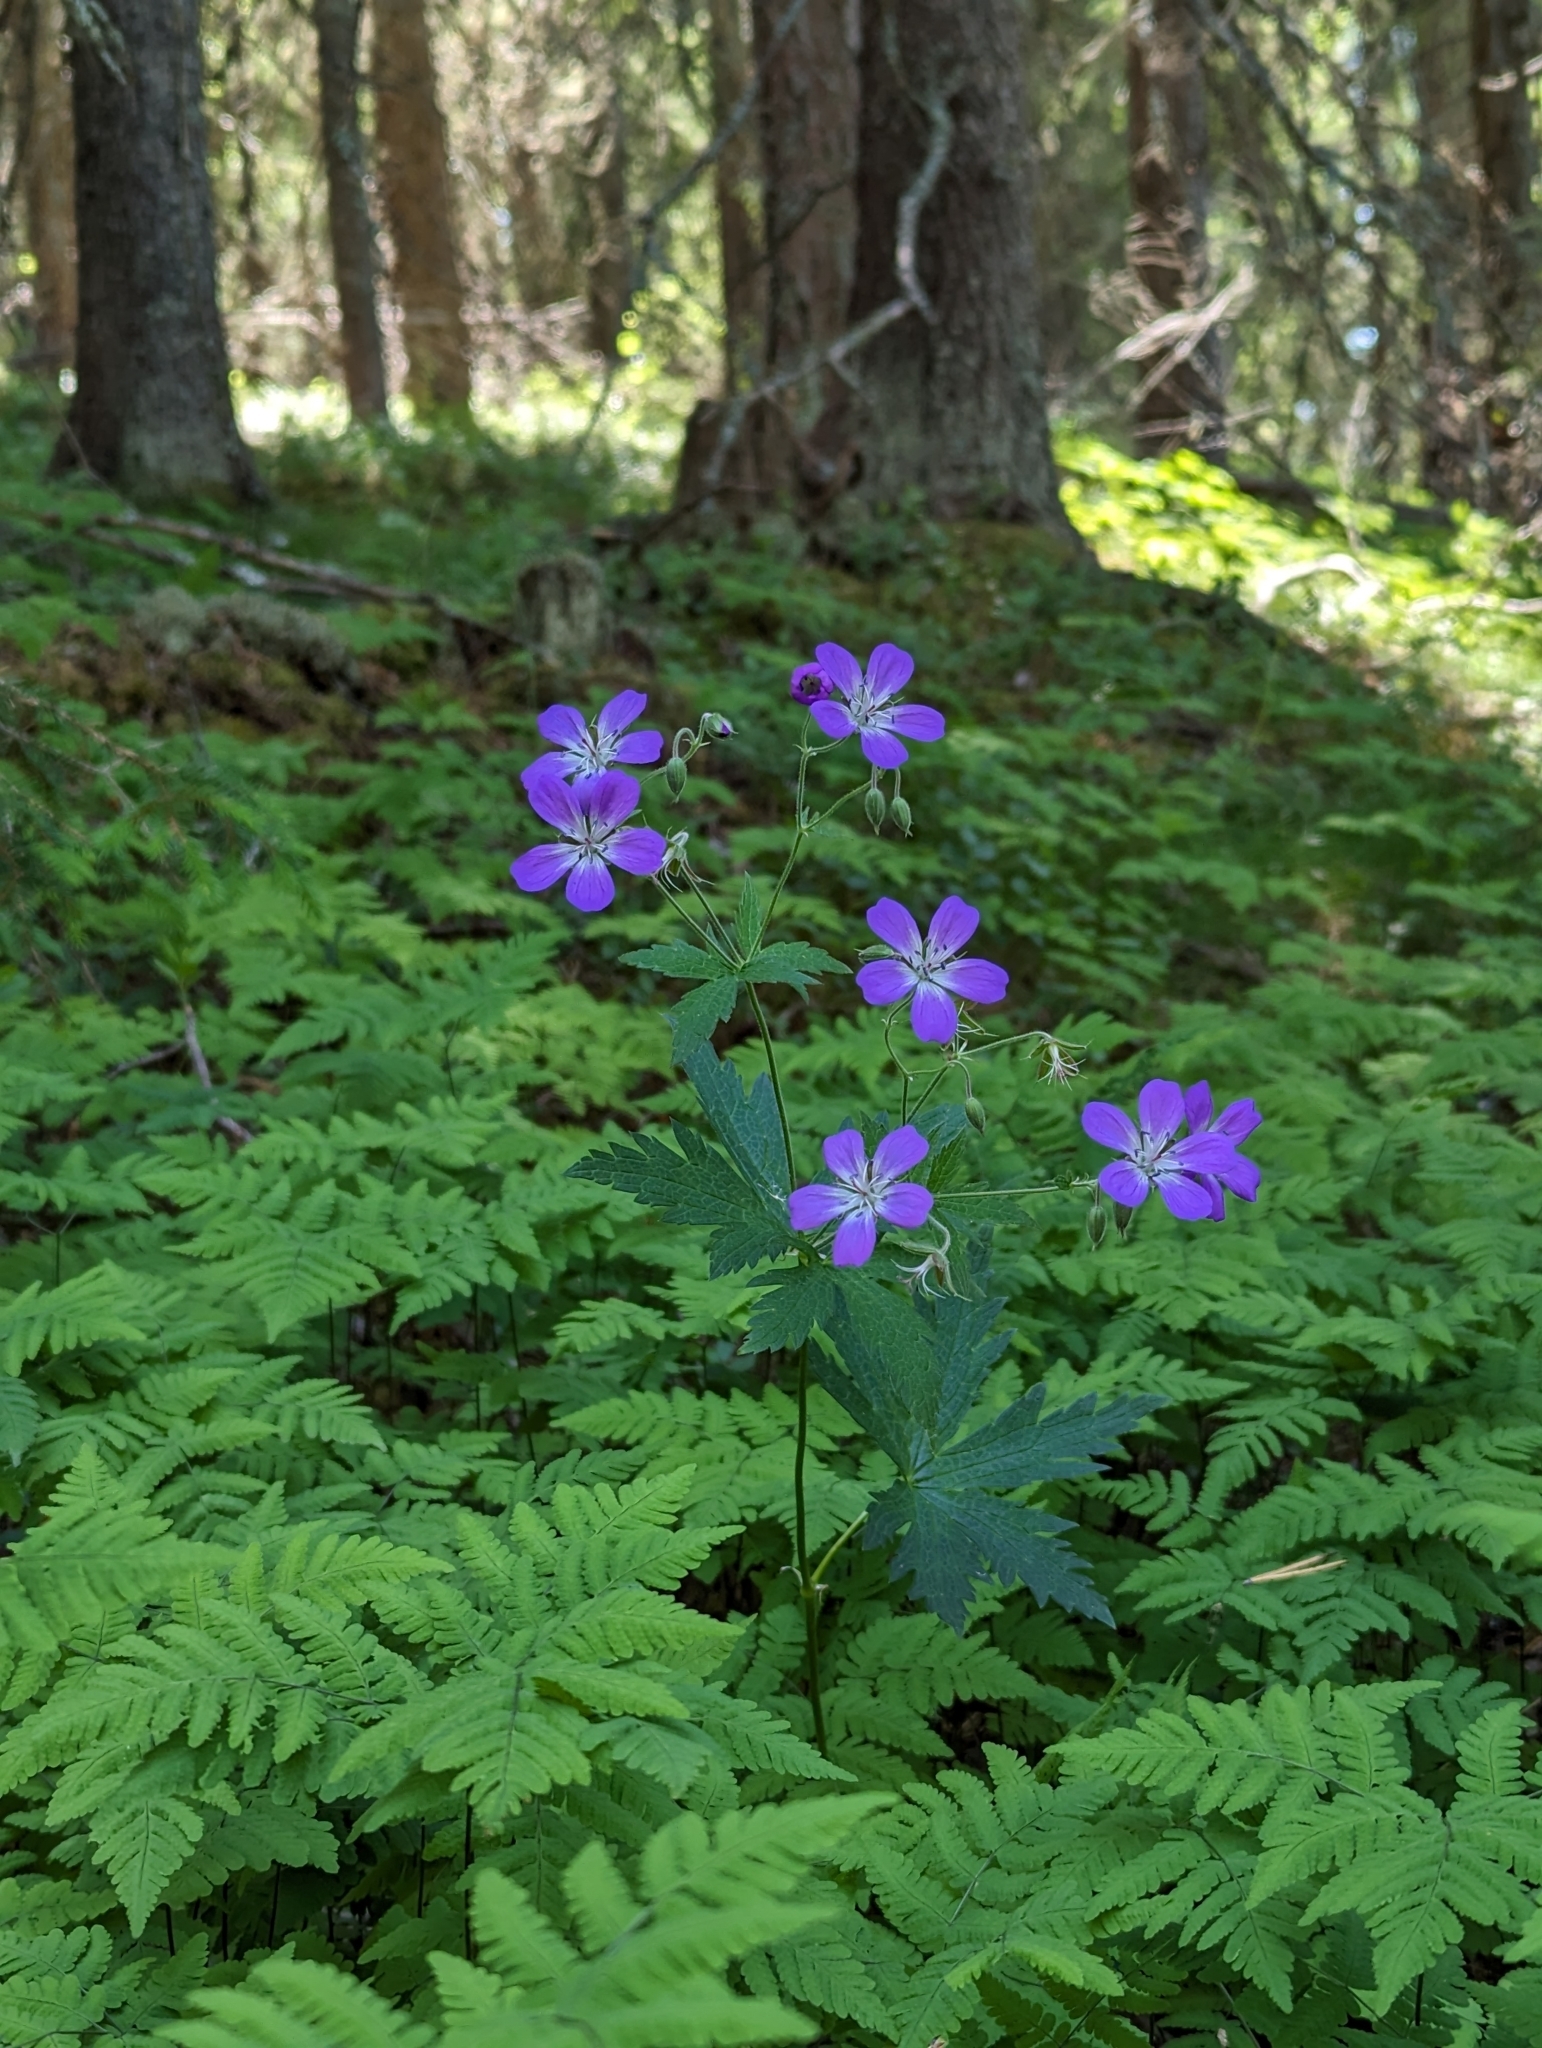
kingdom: Plantae
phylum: Tracheophyta
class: Magnoliopsida
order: Geraniales
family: Geraniaceae
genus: Geranium
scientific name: Geranium sylvaticum
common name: Wood crane's-bill
